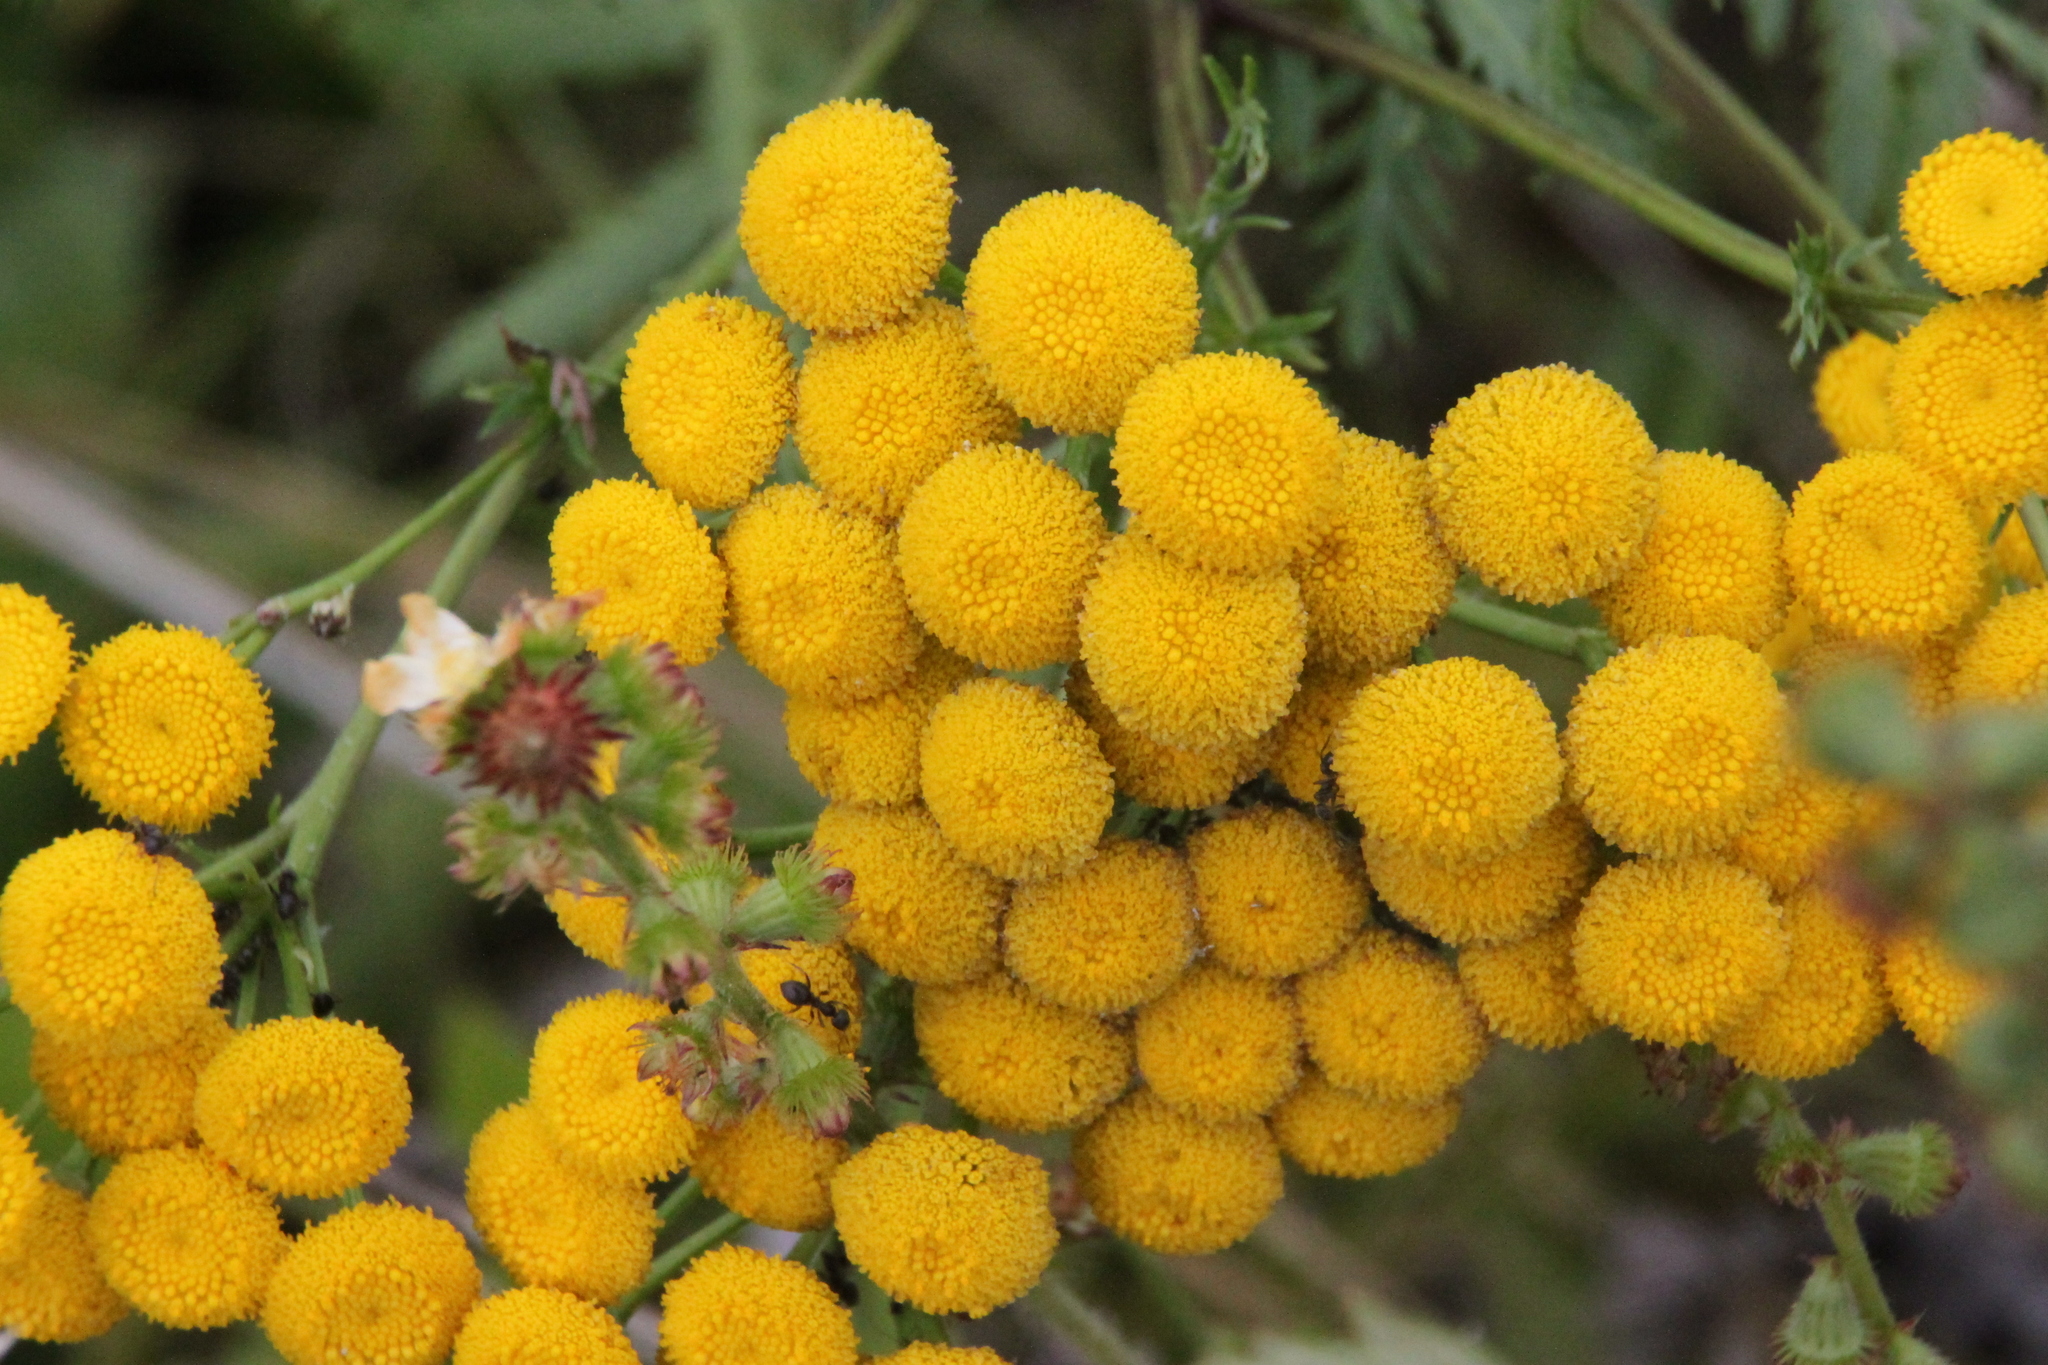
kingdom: Plantae
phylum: Tracheophyta
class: Magnoliopsida
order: Asterales
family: Asteraceae
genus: Tanacetum
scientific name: Tanacetum vulgare
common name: Common tansy
